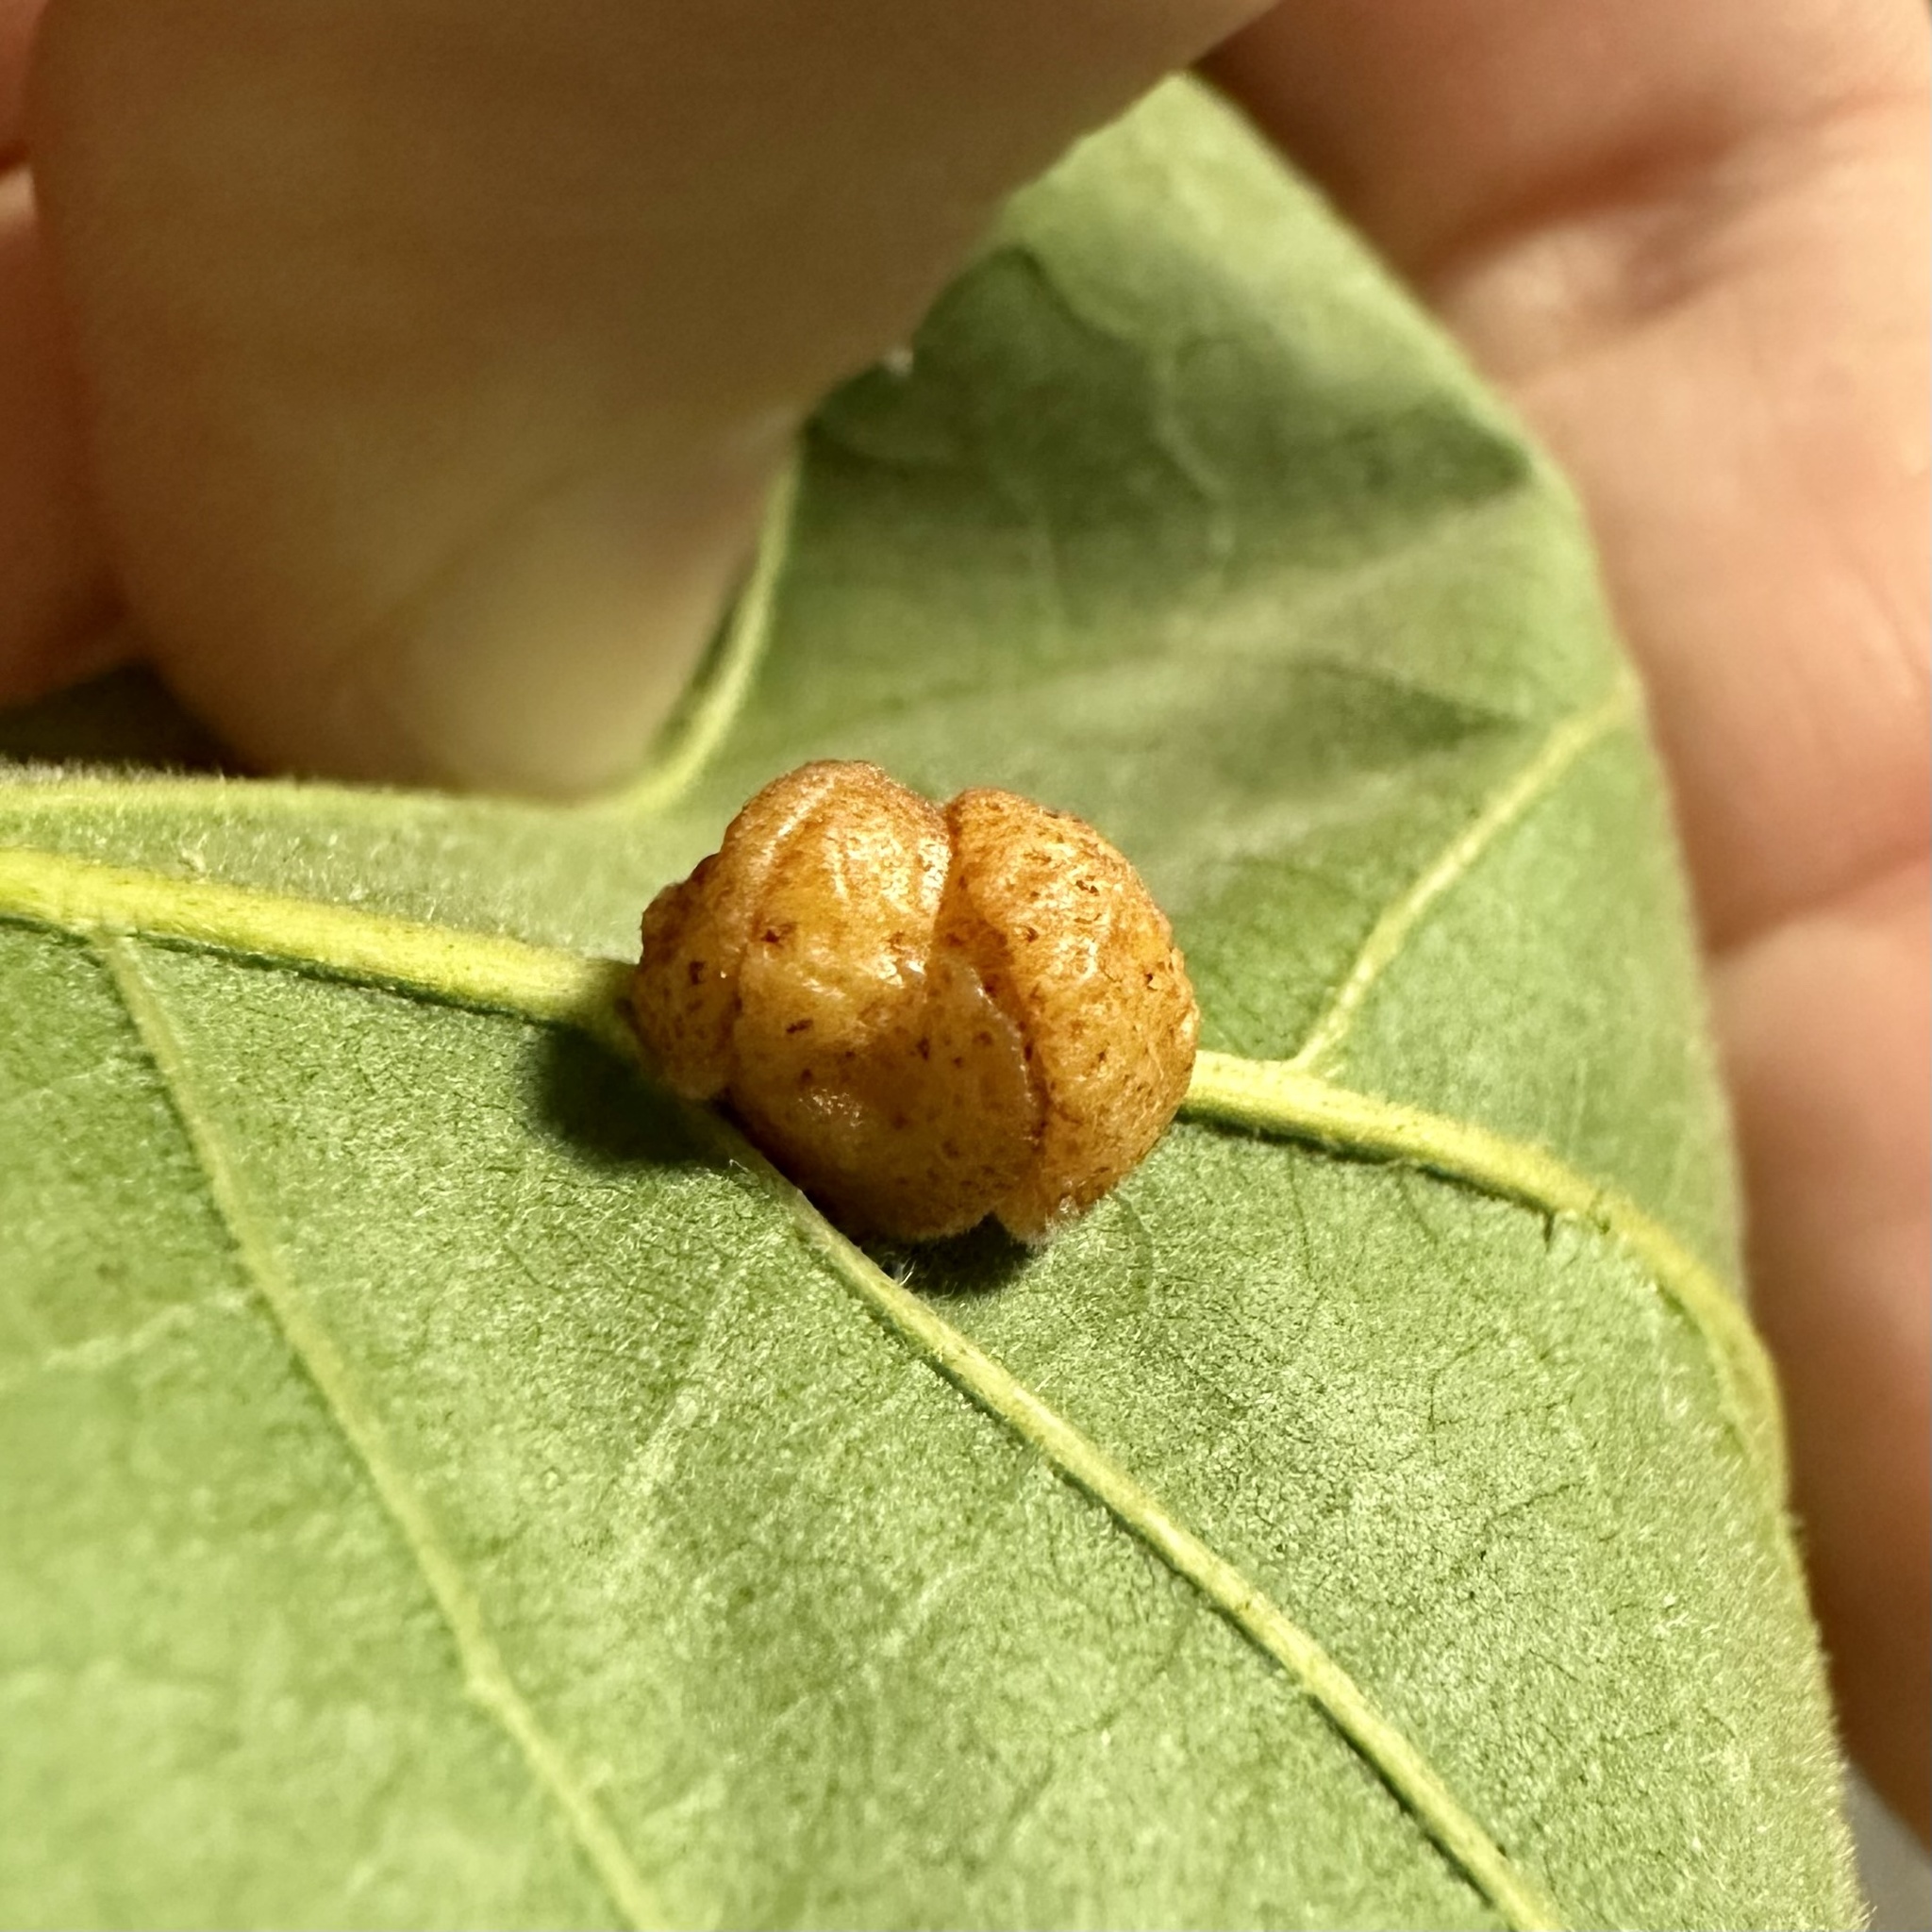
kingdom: Animalia
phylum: Arthropoda
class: Insecta
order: Hymenoptera
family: Cynipidae
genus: Andricus
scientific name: Andricus
